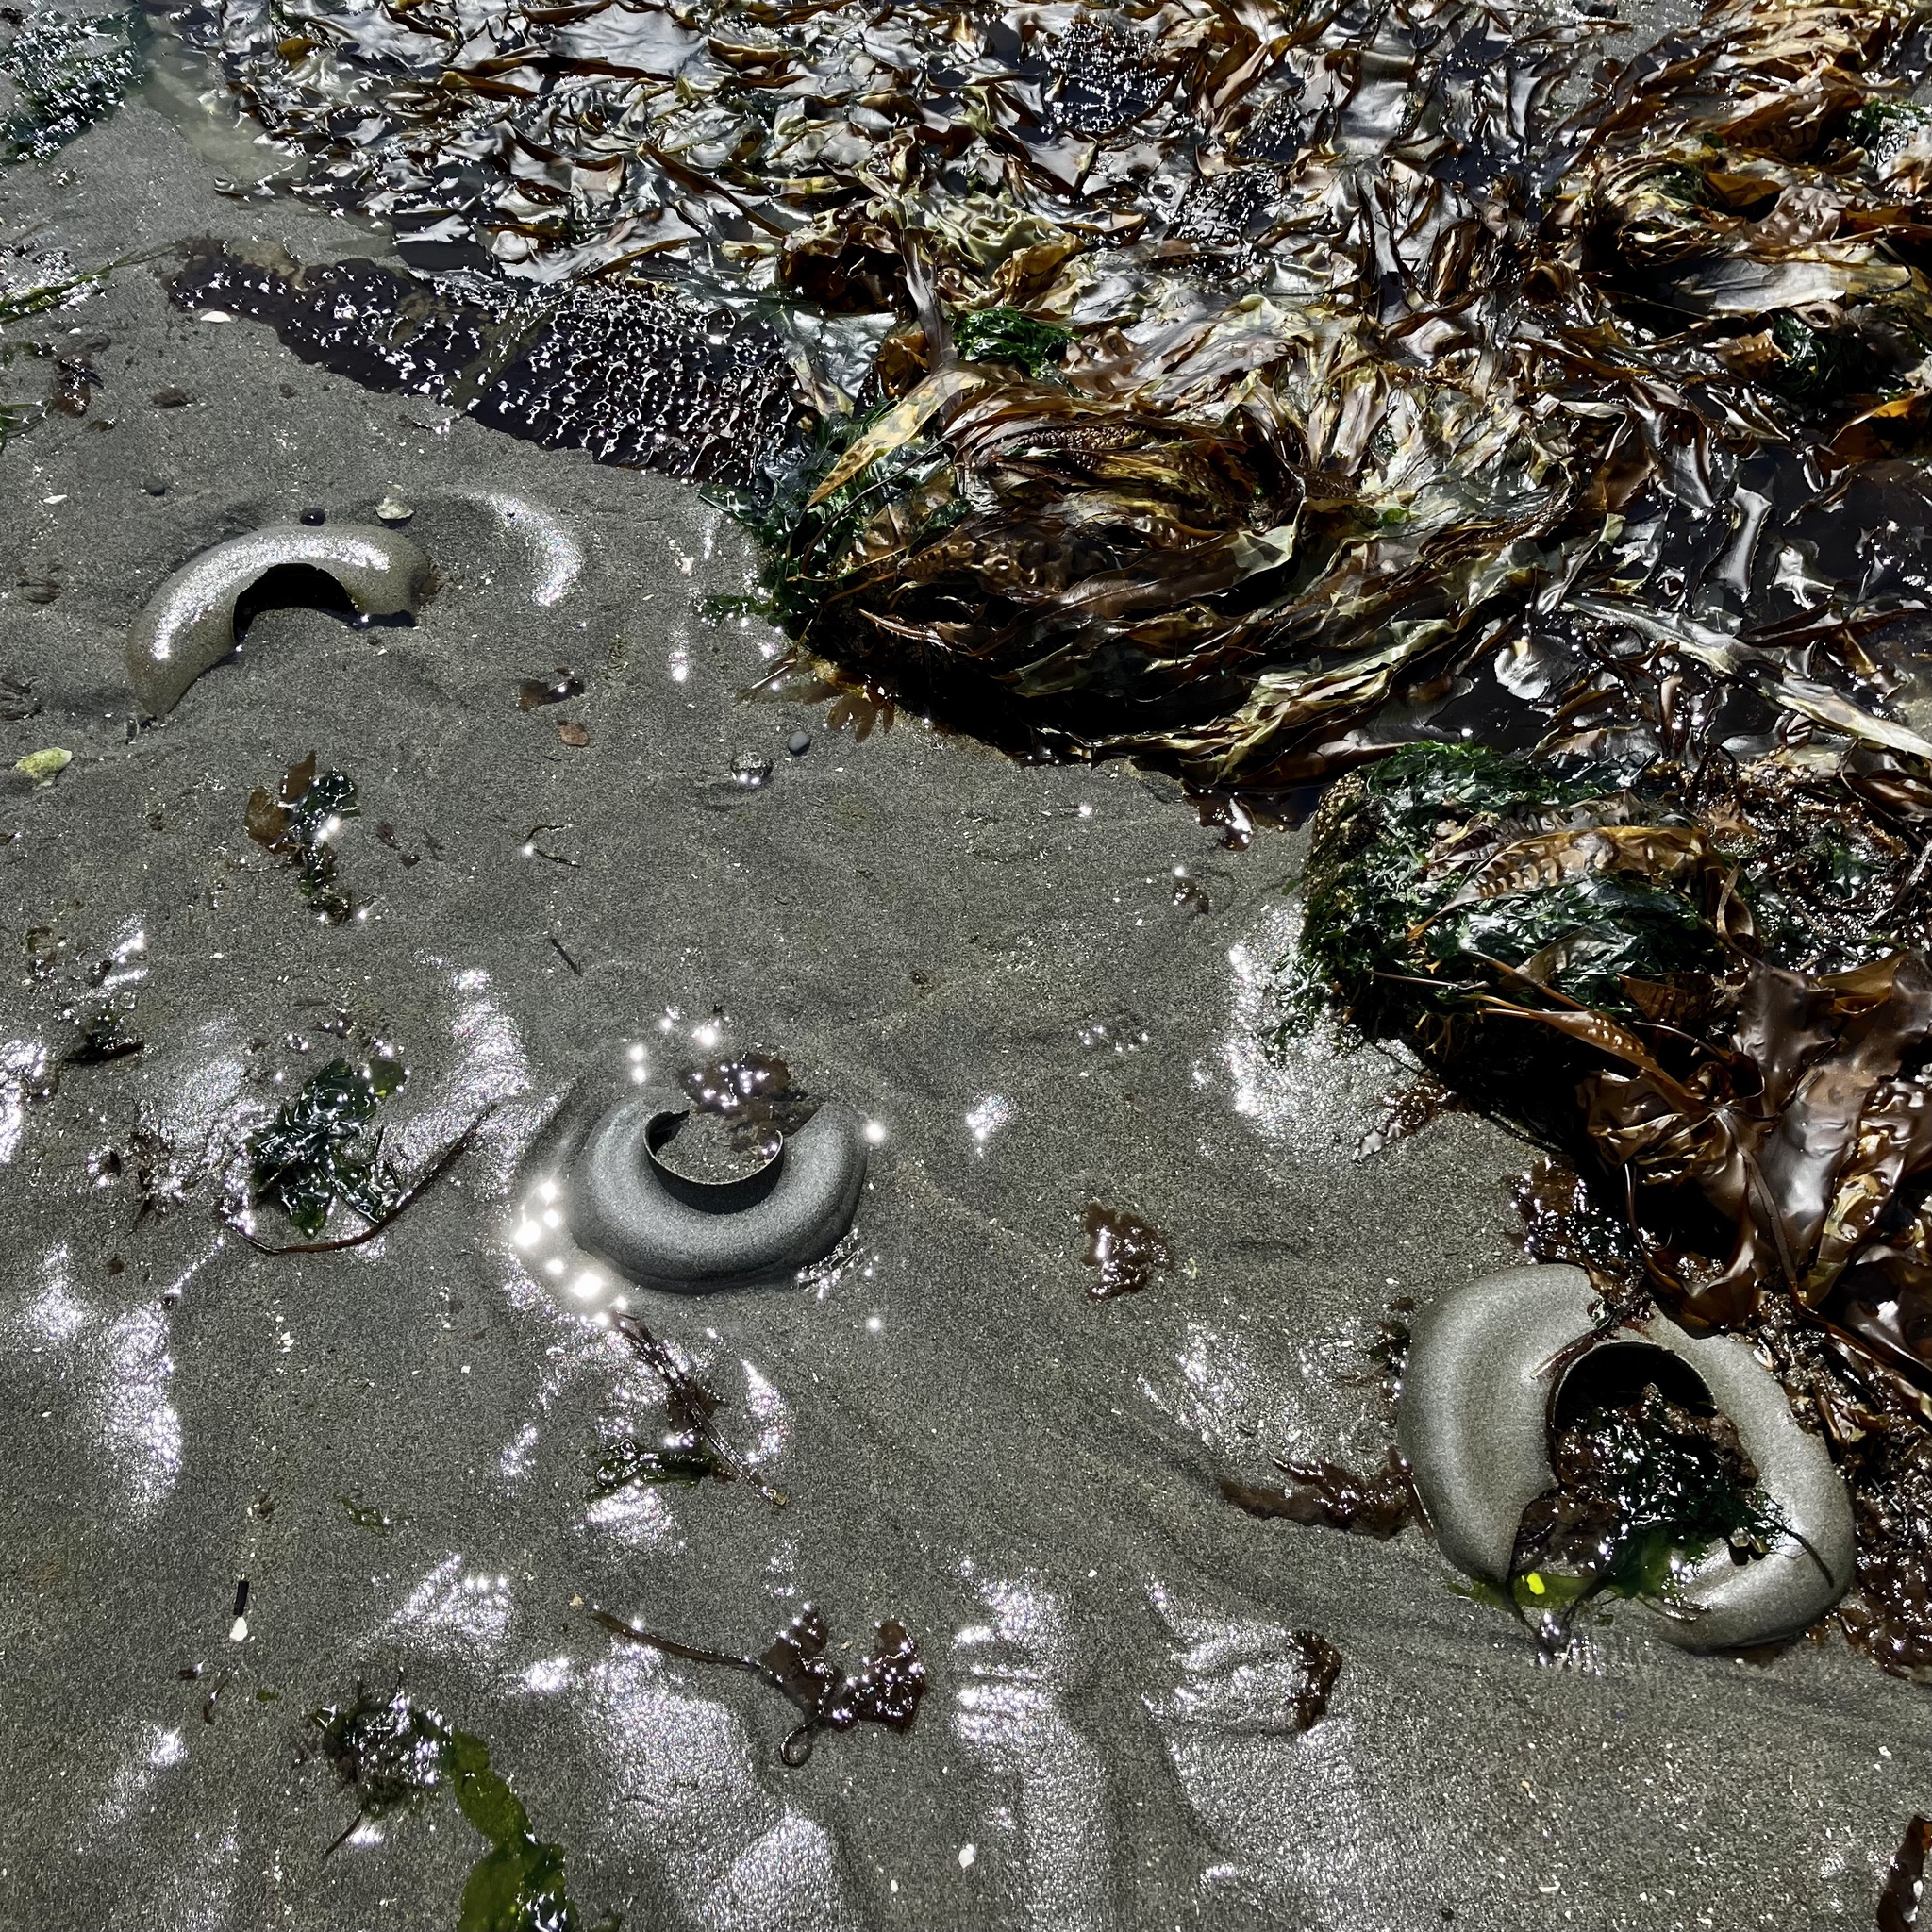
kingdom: Animalia
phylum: Mollusca
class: Gastropoda
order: Littorinimorpha
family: Naticidae
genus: Neverita
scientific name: Neverita lewisii
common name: Lewis' moonsnail
